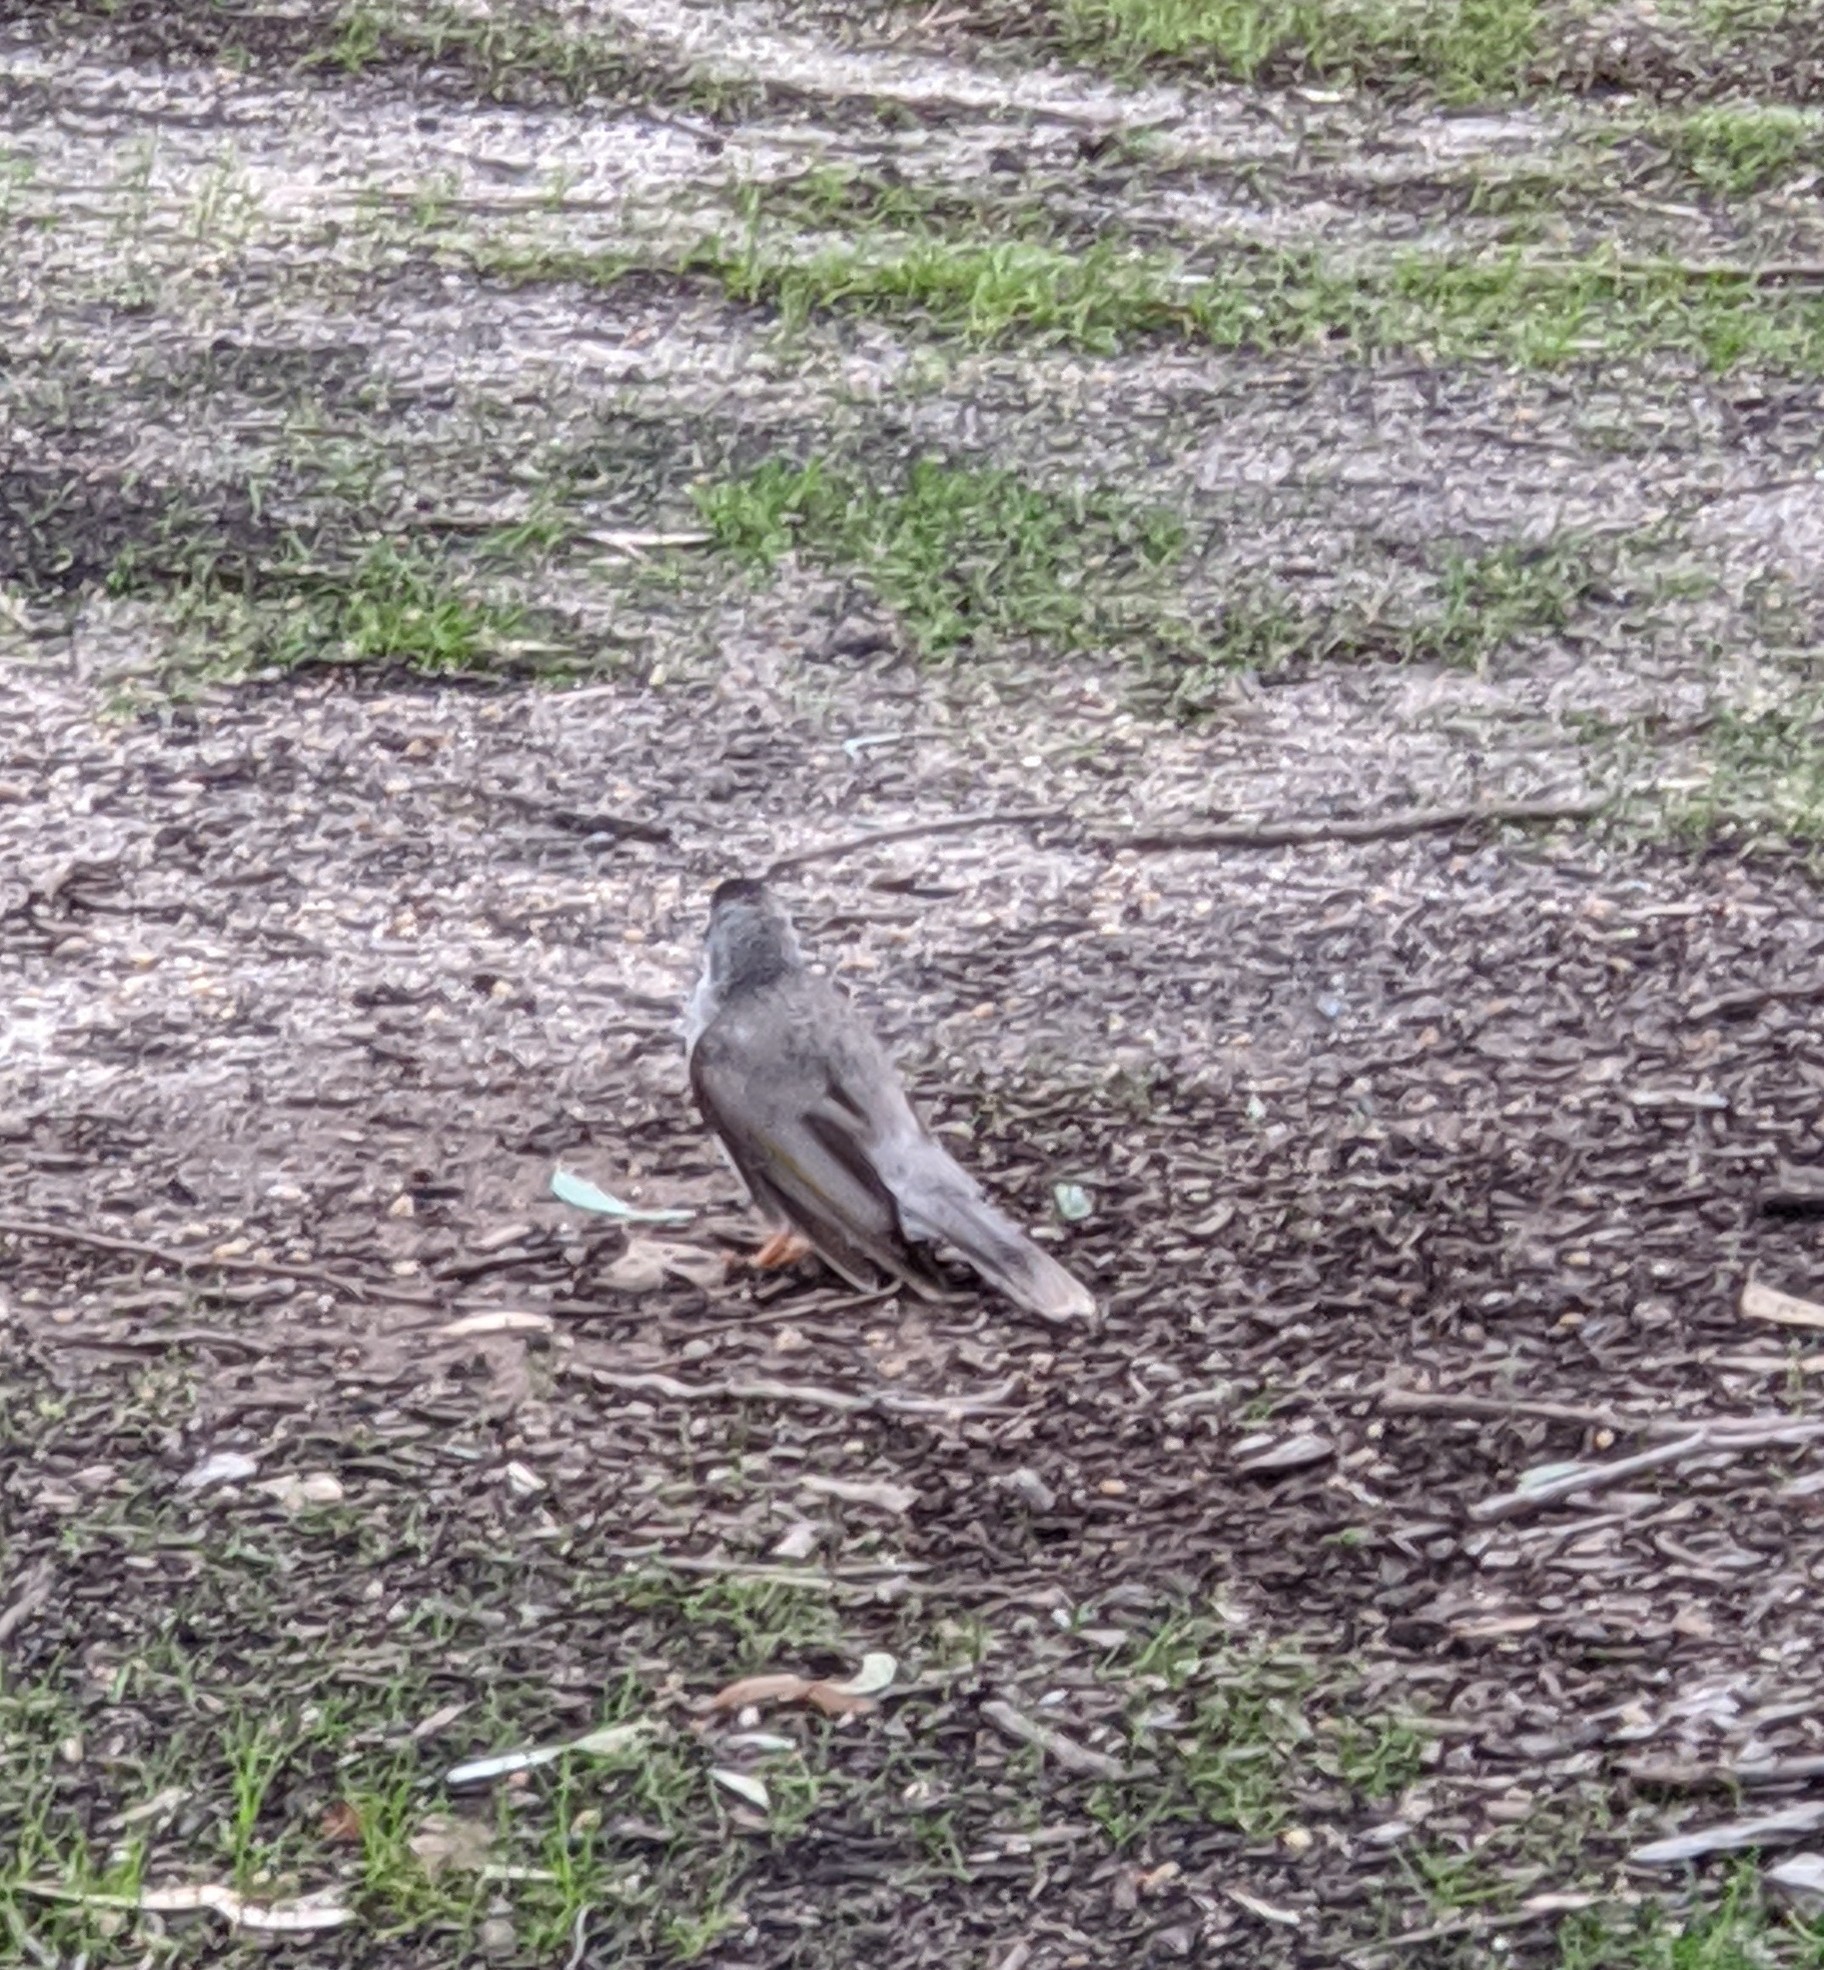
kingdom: Animalia
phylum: Chordata
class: Aves
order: Passeriformes
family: Meliphagidae
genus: Manorina
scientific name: Manorina melanocephala
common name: Noisy miner
